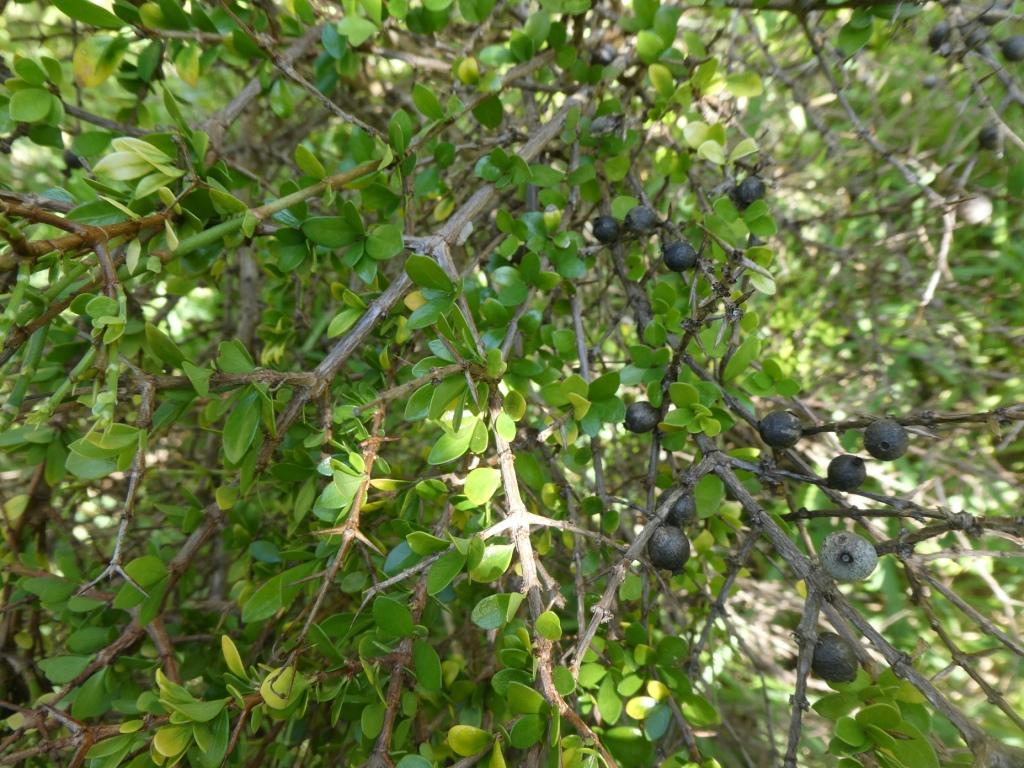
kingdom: Plantae
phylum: Tracheophyta
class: Magnoliopsida
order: Gentianales
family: Rubiaceae
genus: Randia
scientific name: Randia aculeata
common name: Inkberry
